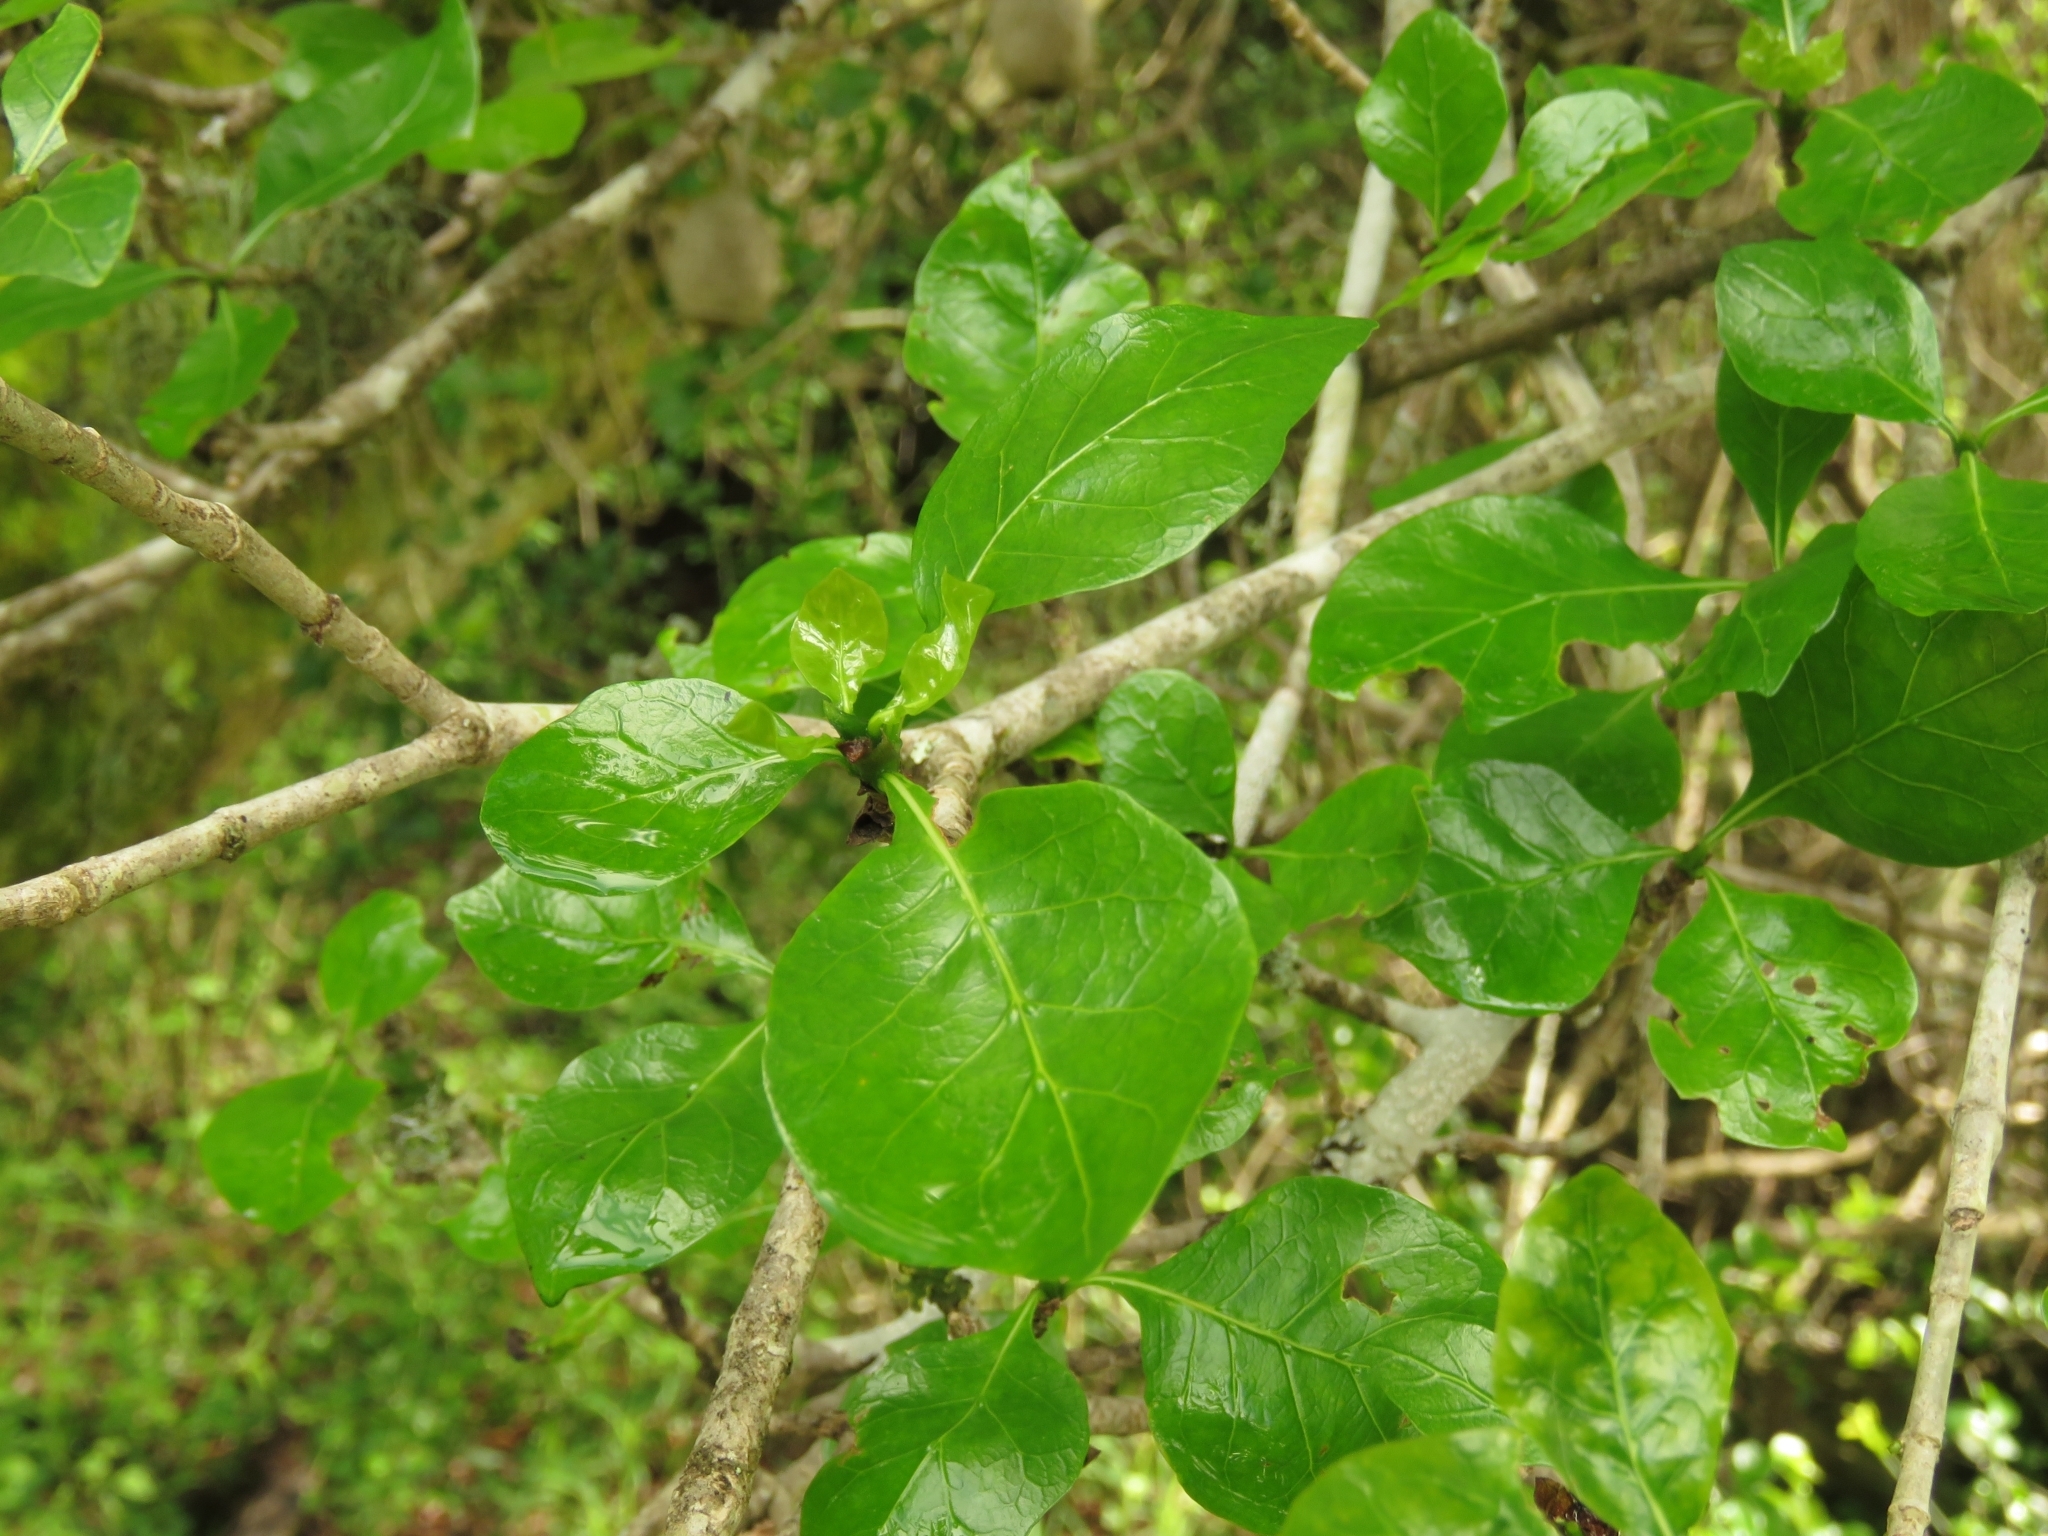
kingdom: Plantae
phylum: Tracheophyta
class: Magnoliopsida
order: Gentianales
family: Rubiaceae
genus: Gardenia
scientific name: Gardenia thunbergia
